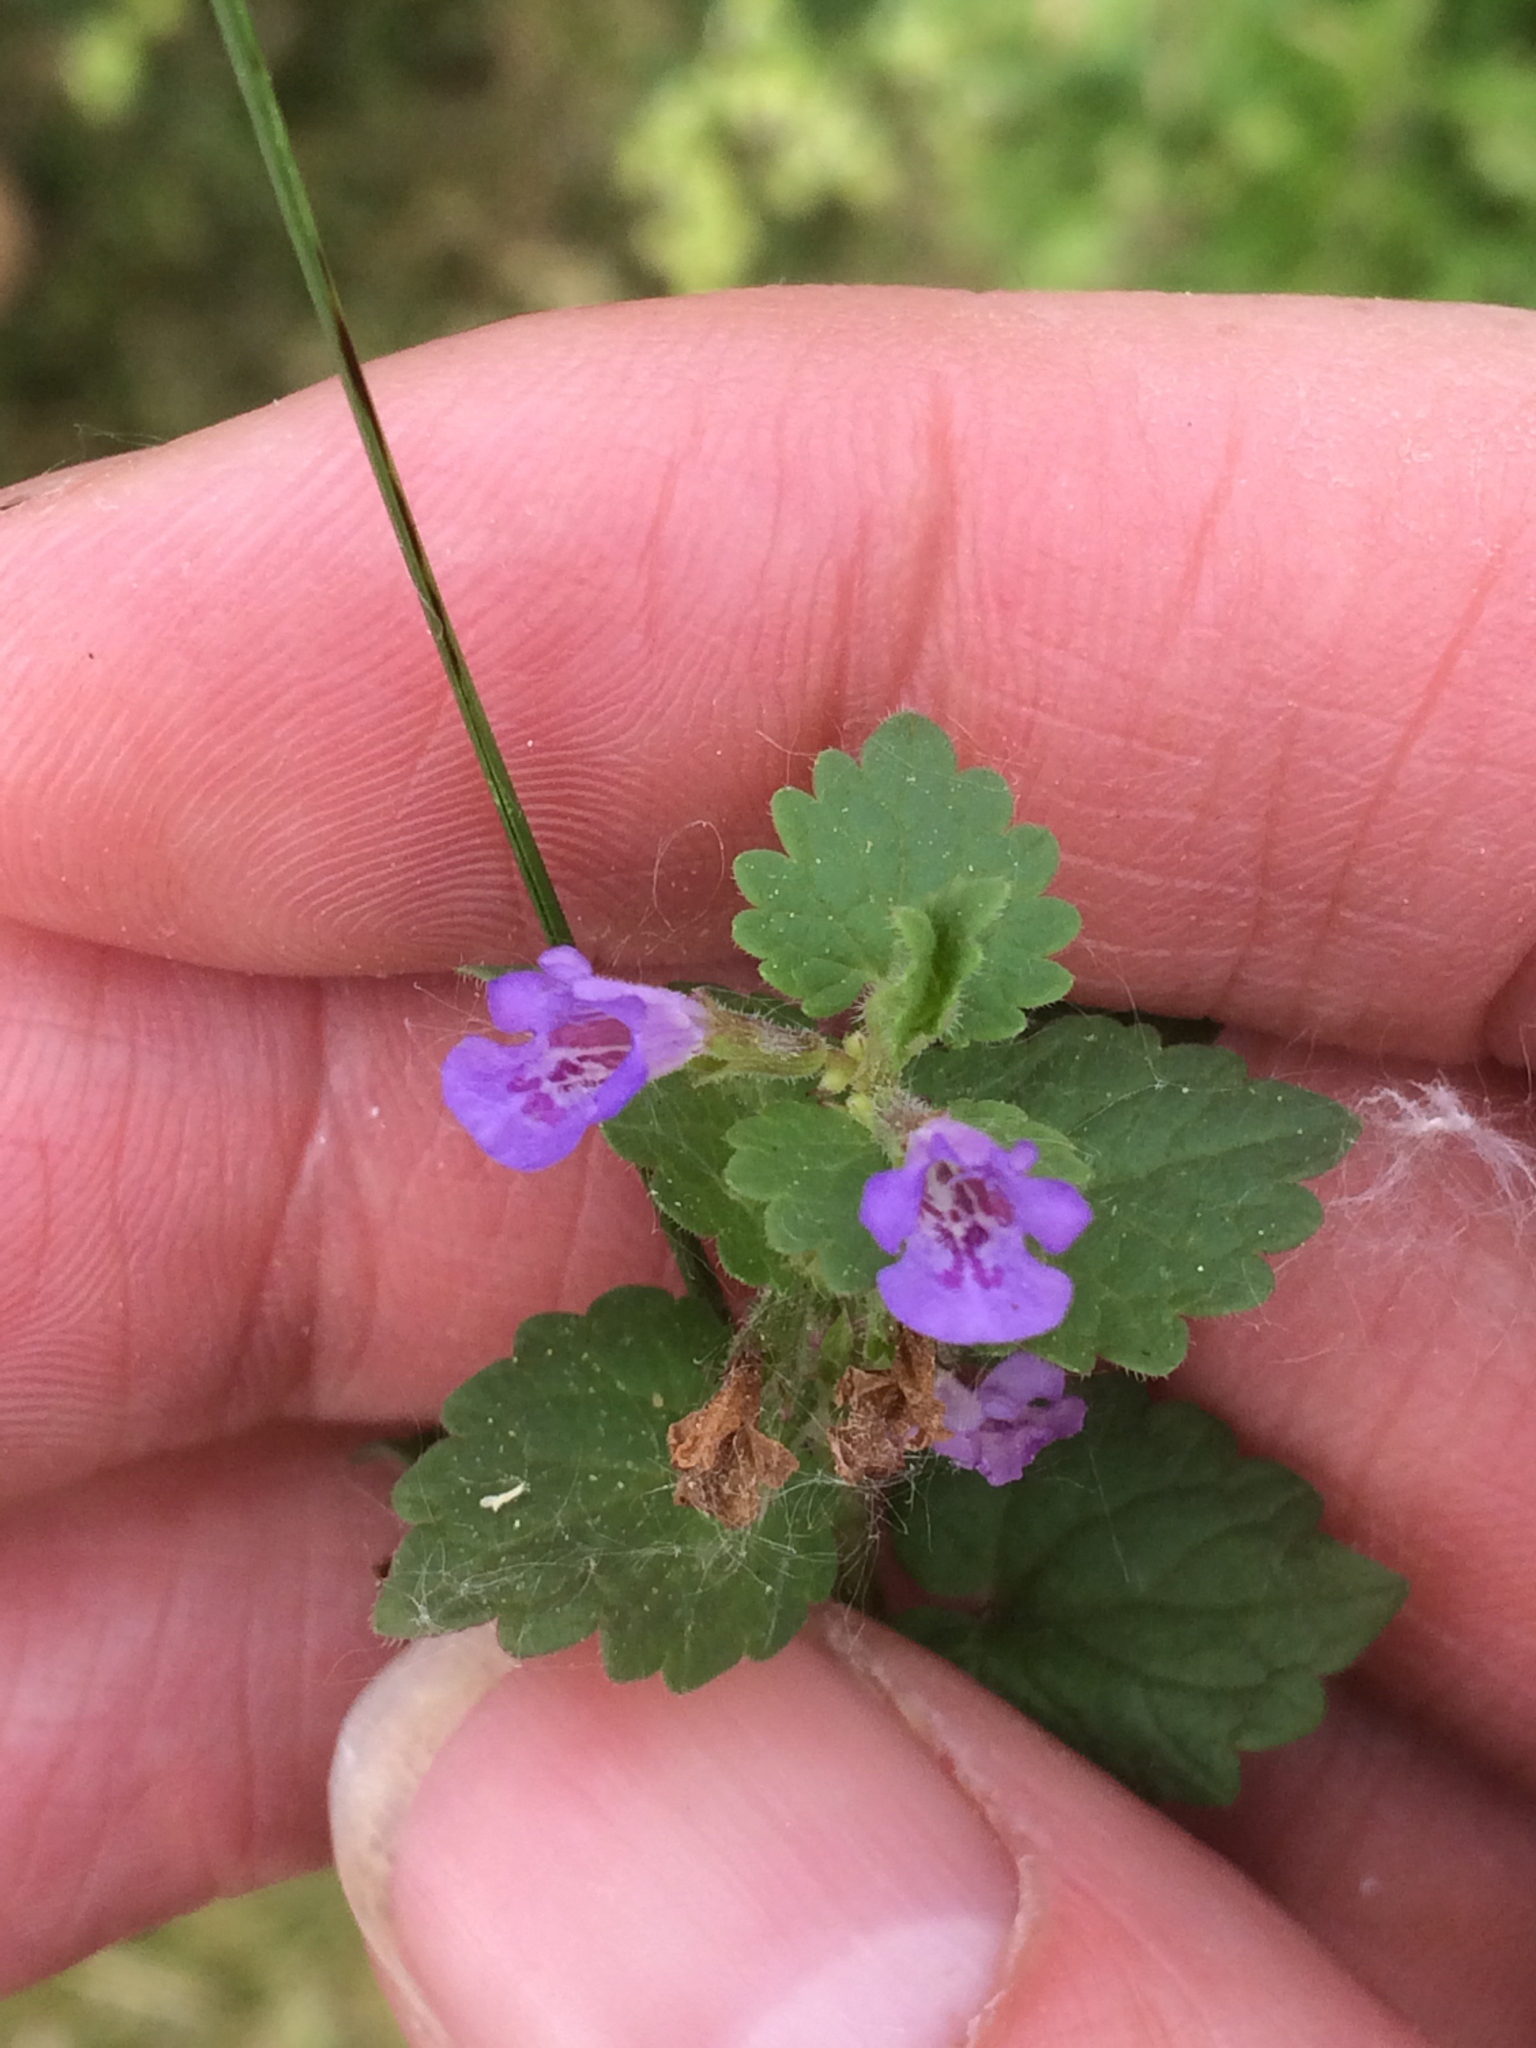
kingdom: Plantae
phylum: Tracheophyta
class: Magnoliopsida
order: Lamiales
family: Lamiaceae
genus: Glechoma
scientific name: Glechoma hederacea
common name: Ground ivy
